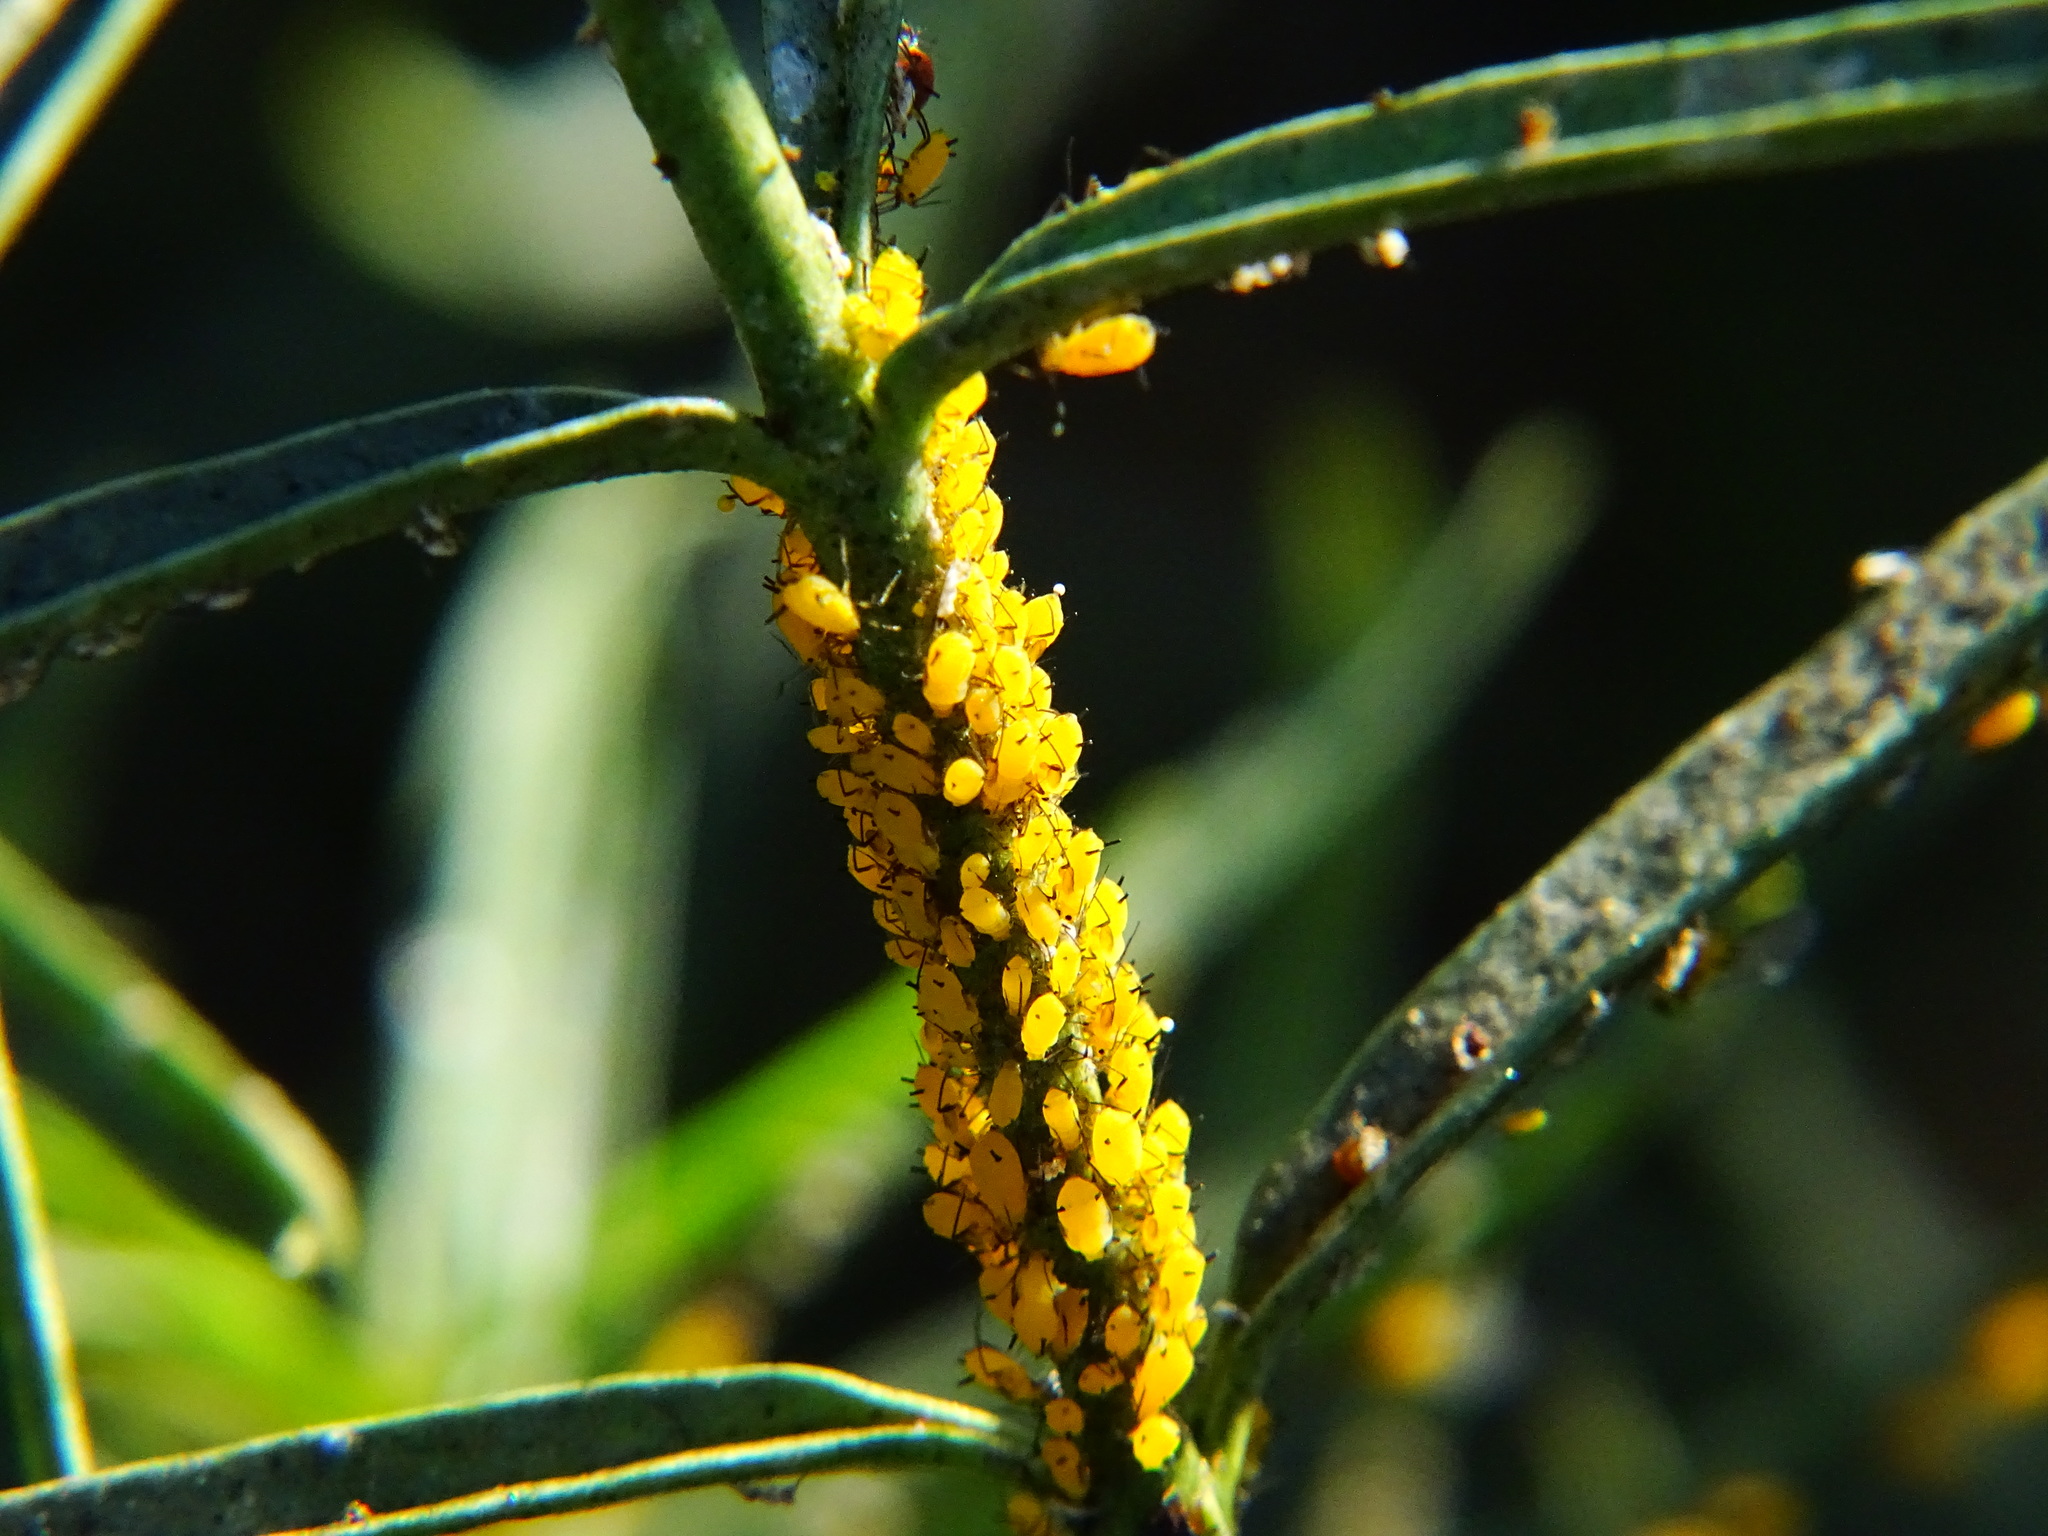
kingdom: Plantae
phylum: Tracheophyta
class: Magnoliopsida
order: Gentianales
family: Apocynaceae
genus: Asclepias
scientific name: Asclepias fascicularis
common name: Mexican milkweed
